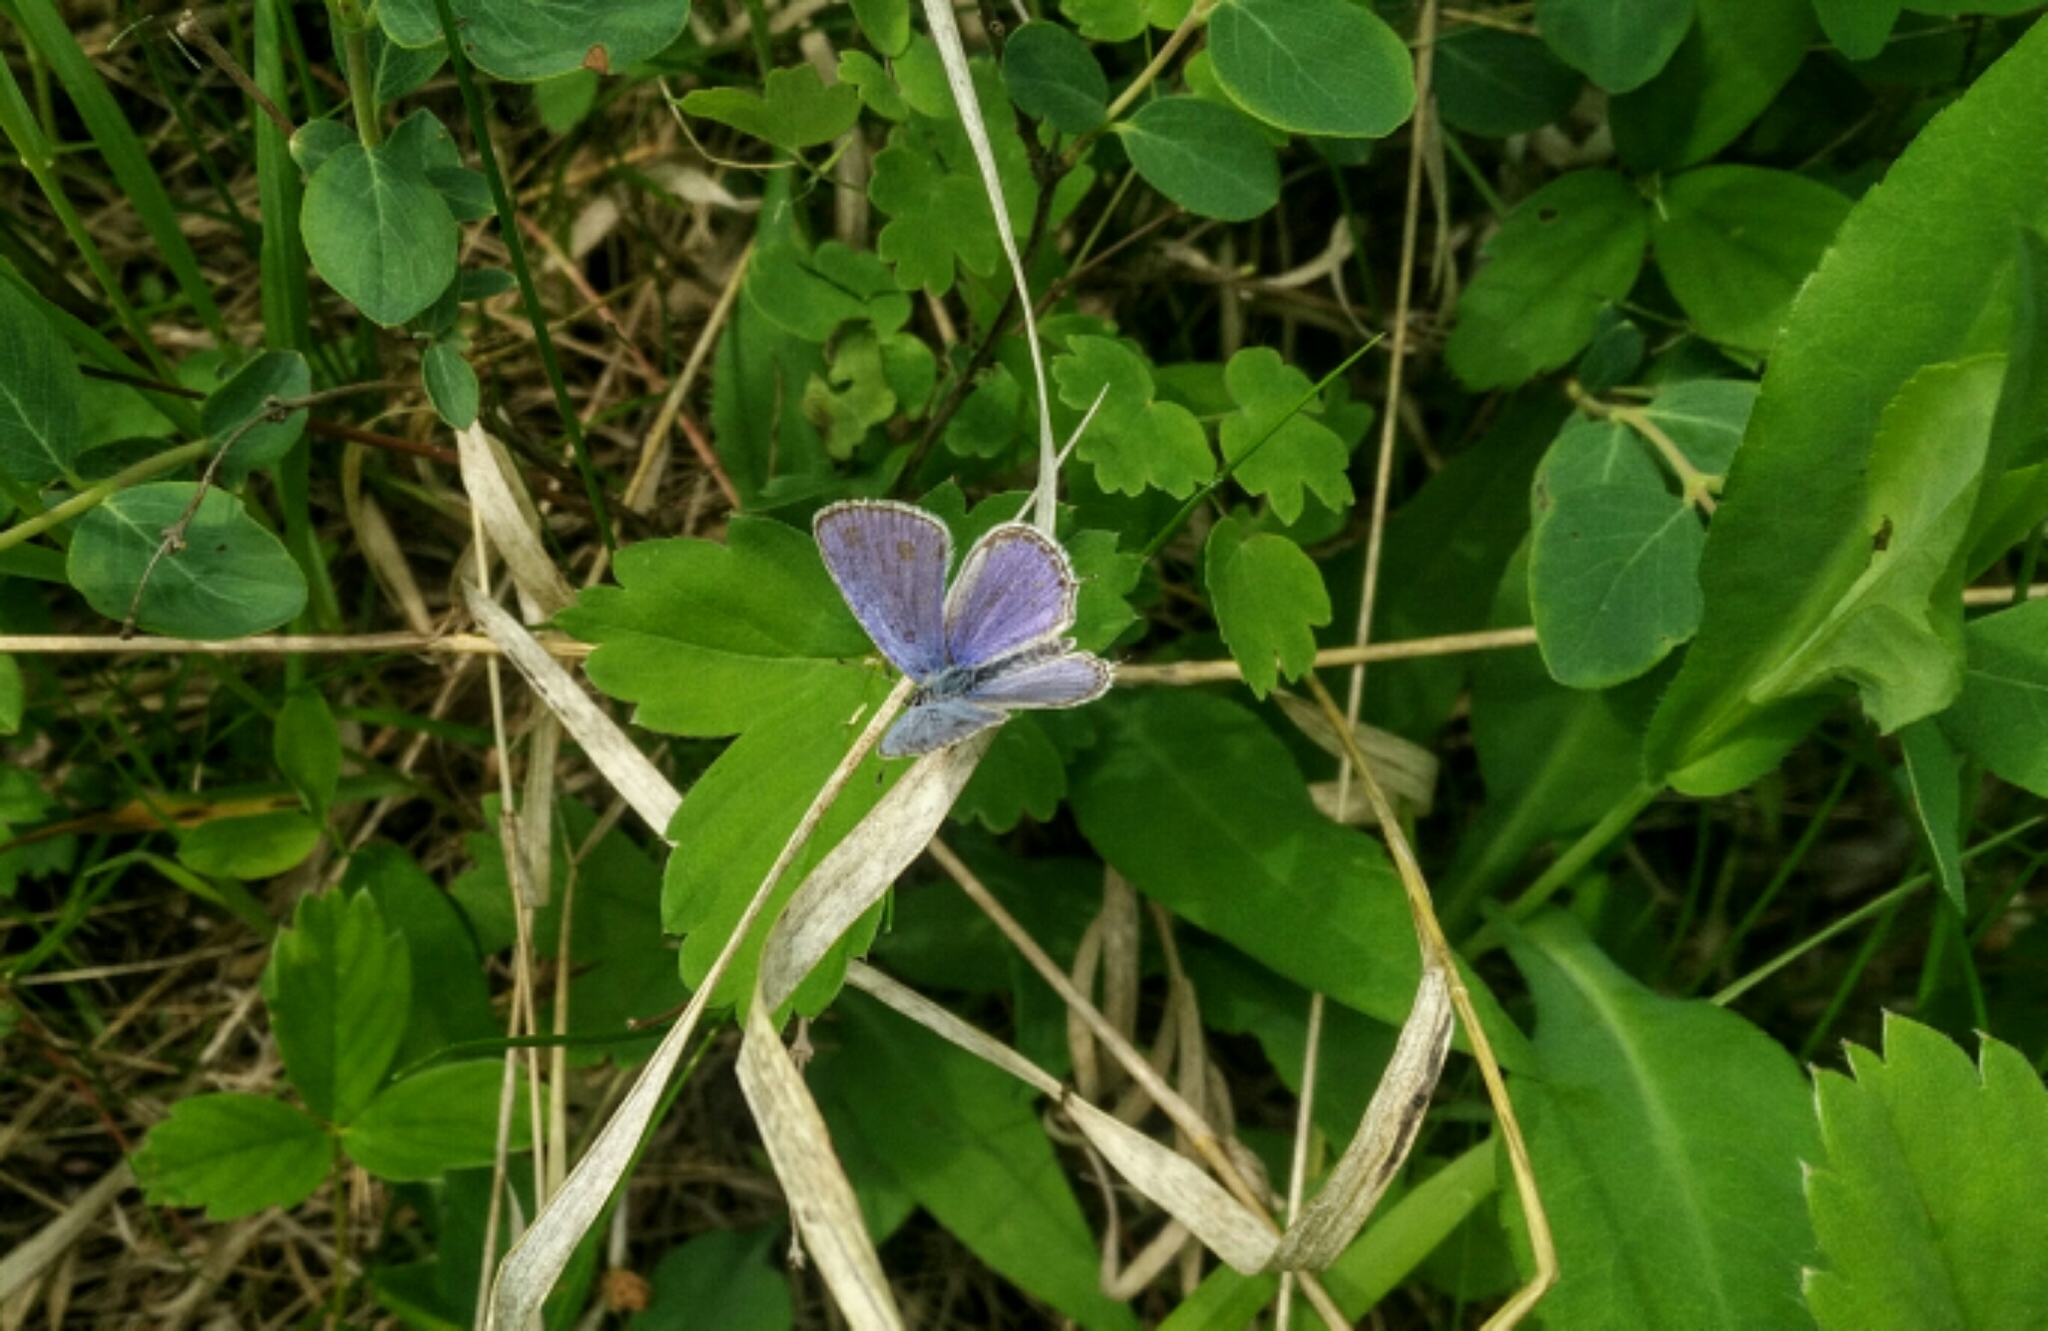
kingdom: Animalia
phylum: Arthropoda
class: Insecta
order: Lepidoptera
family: Lycaenidae
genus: Elkalyce
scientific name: Elkalyce amyntula
